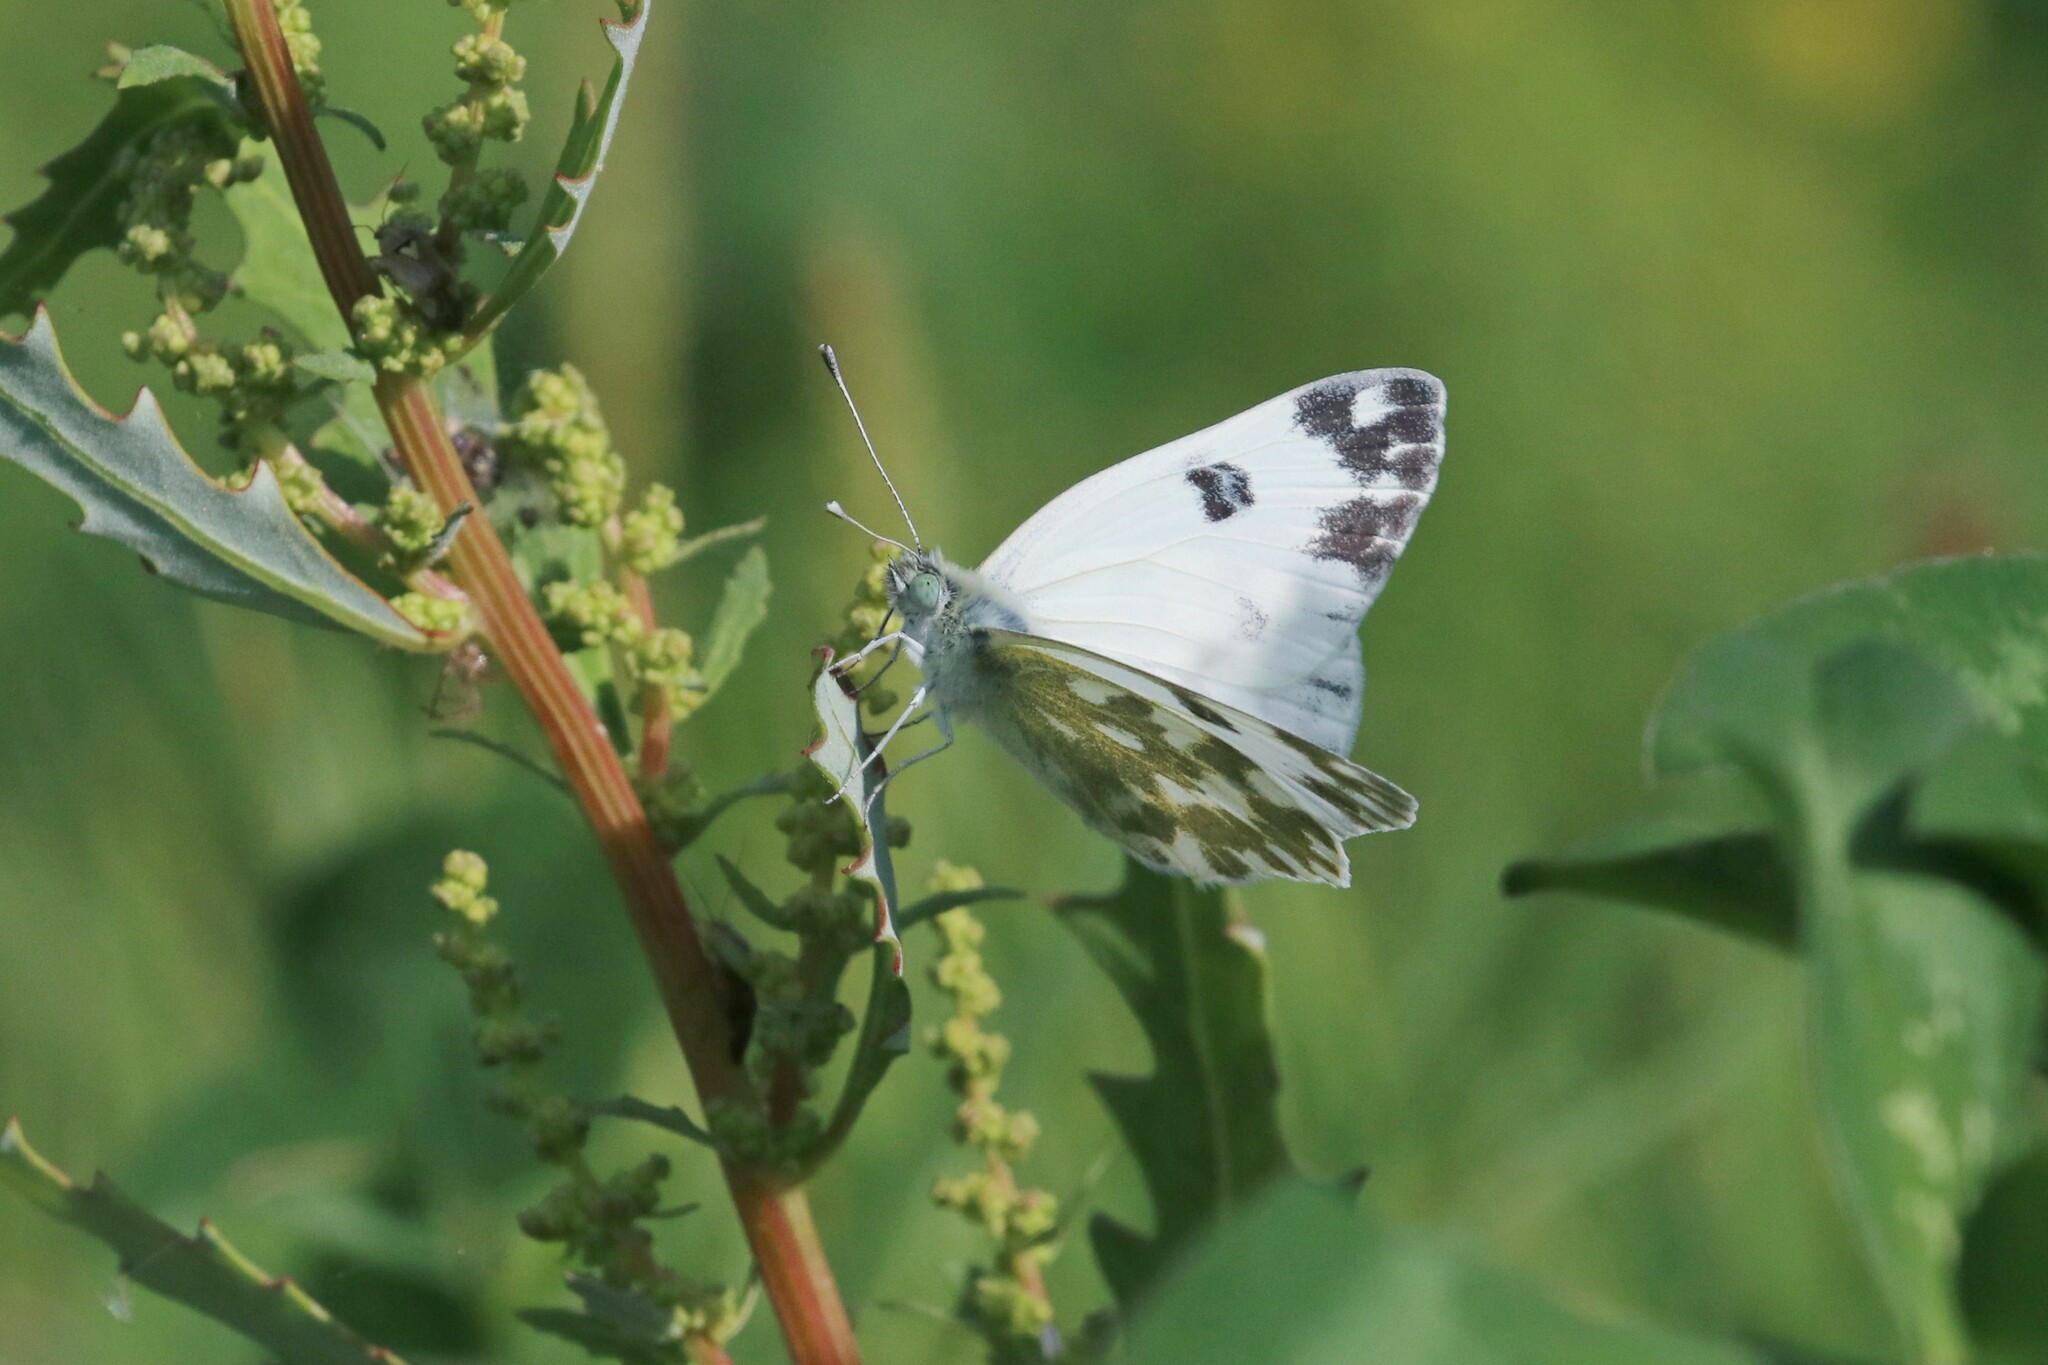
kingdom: Animalia
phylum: Arthropoda
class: Insecta
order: Lepidoptera
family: Pieridae
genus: Pontia
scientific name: Pontia edusa
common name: Eastern bath white
